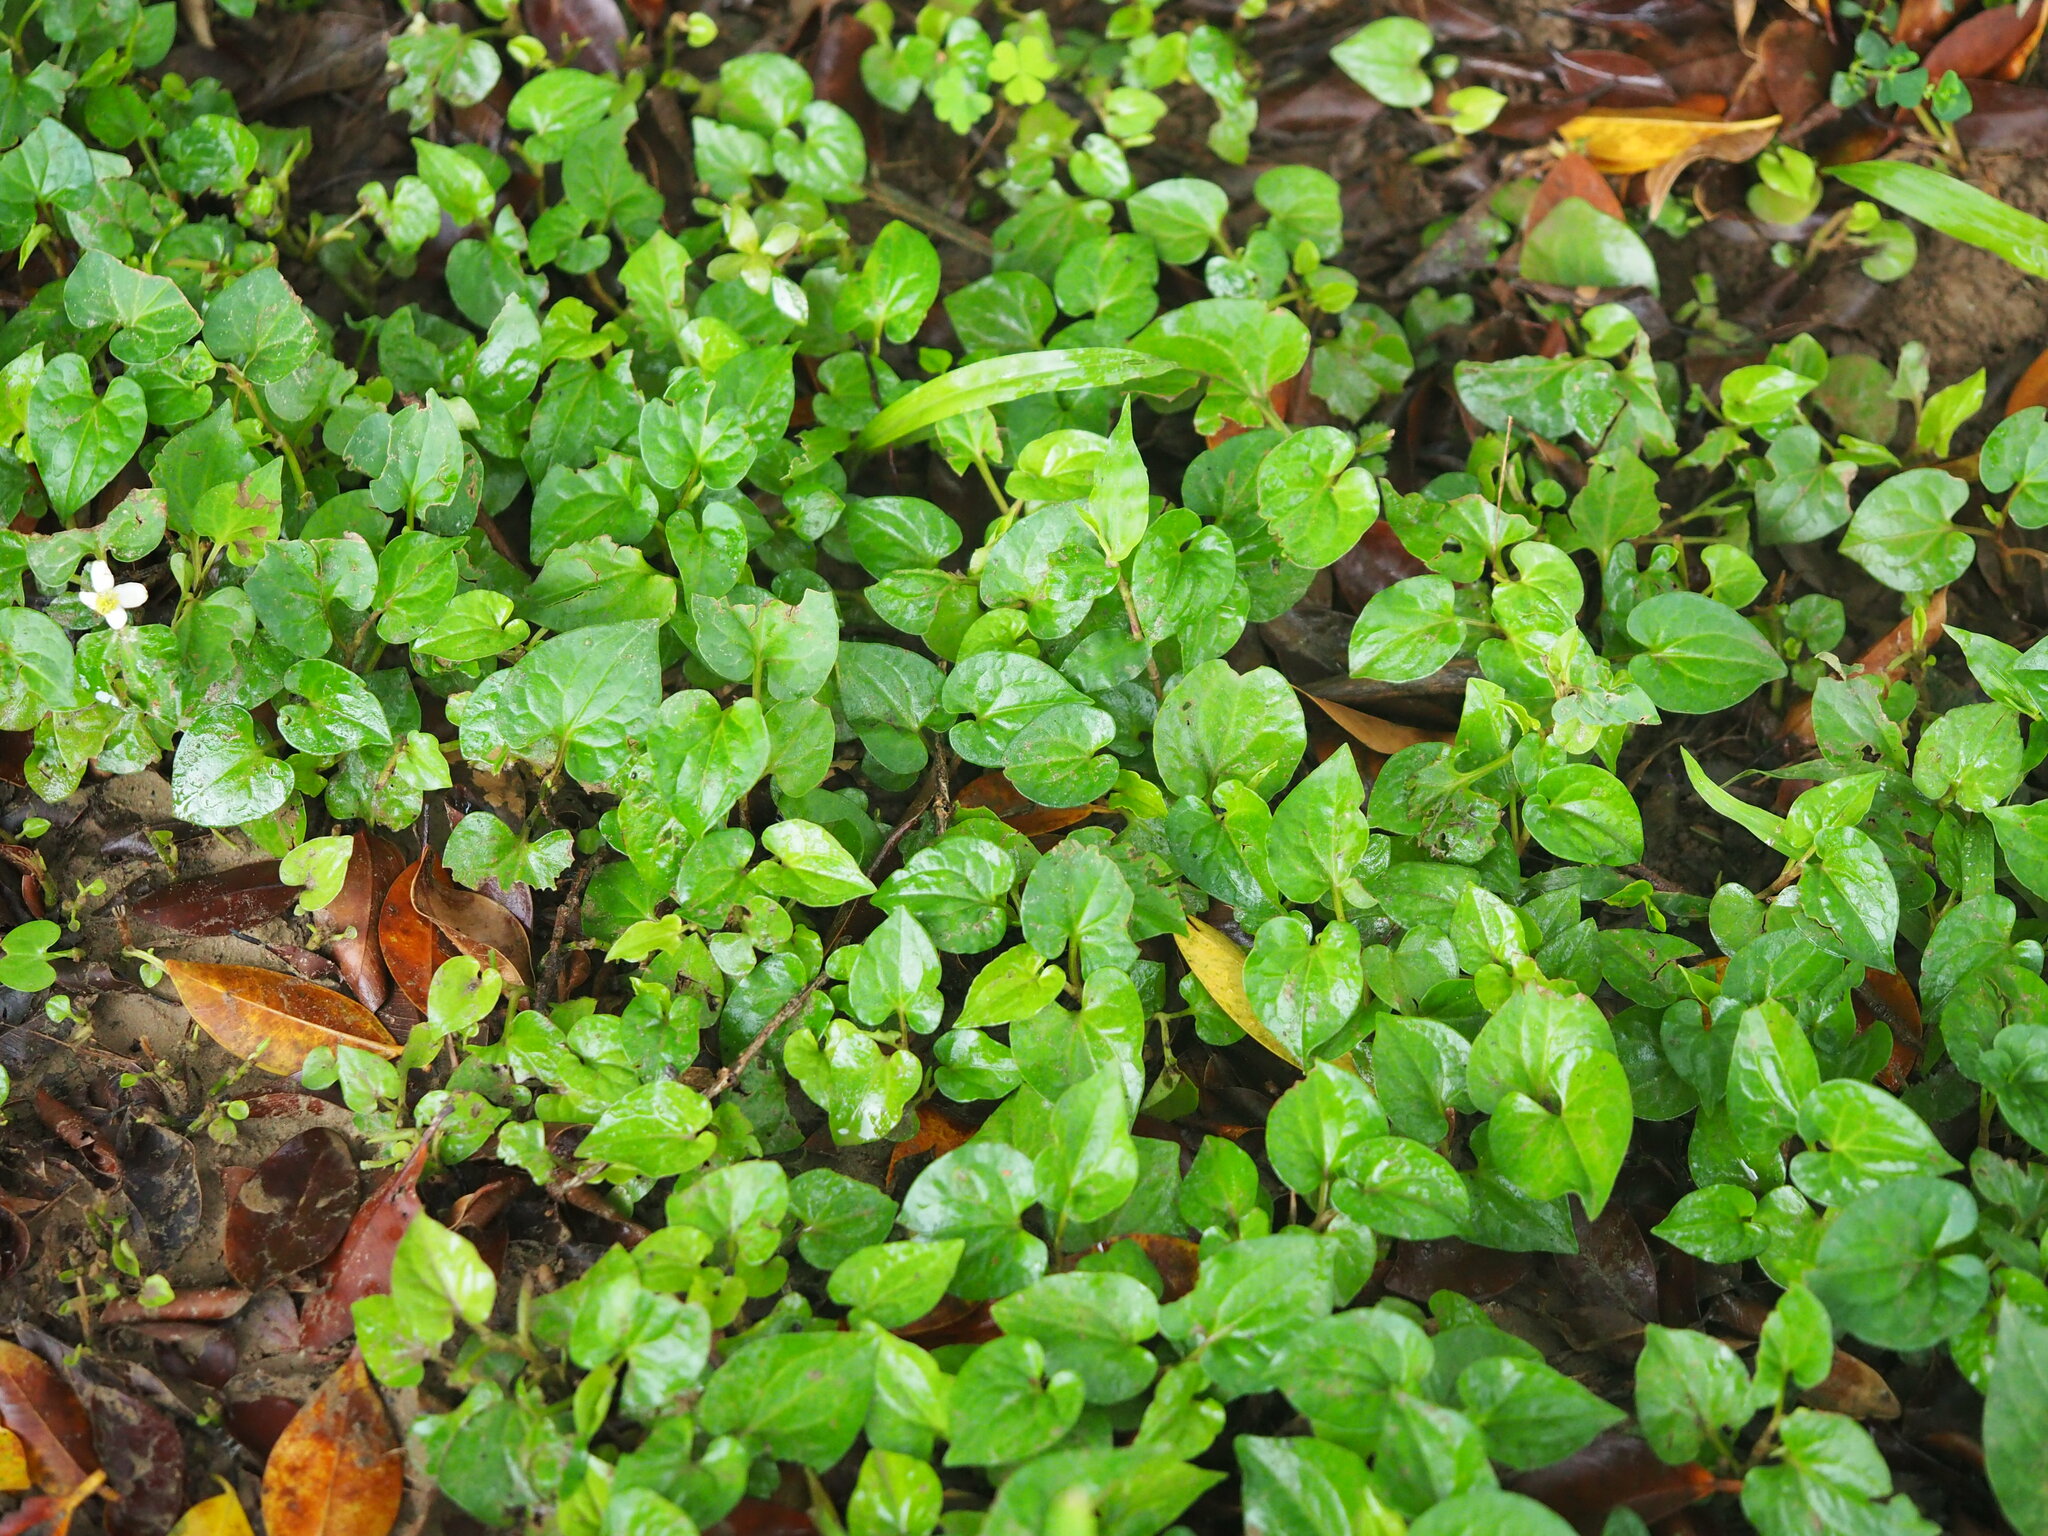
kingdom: Plantae
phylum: Tracheophyta
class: Magnoliopsida
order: Piperales
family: Saururaceae
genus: Houttuynia
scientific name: Houttuynia cordata
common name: Chameleon
